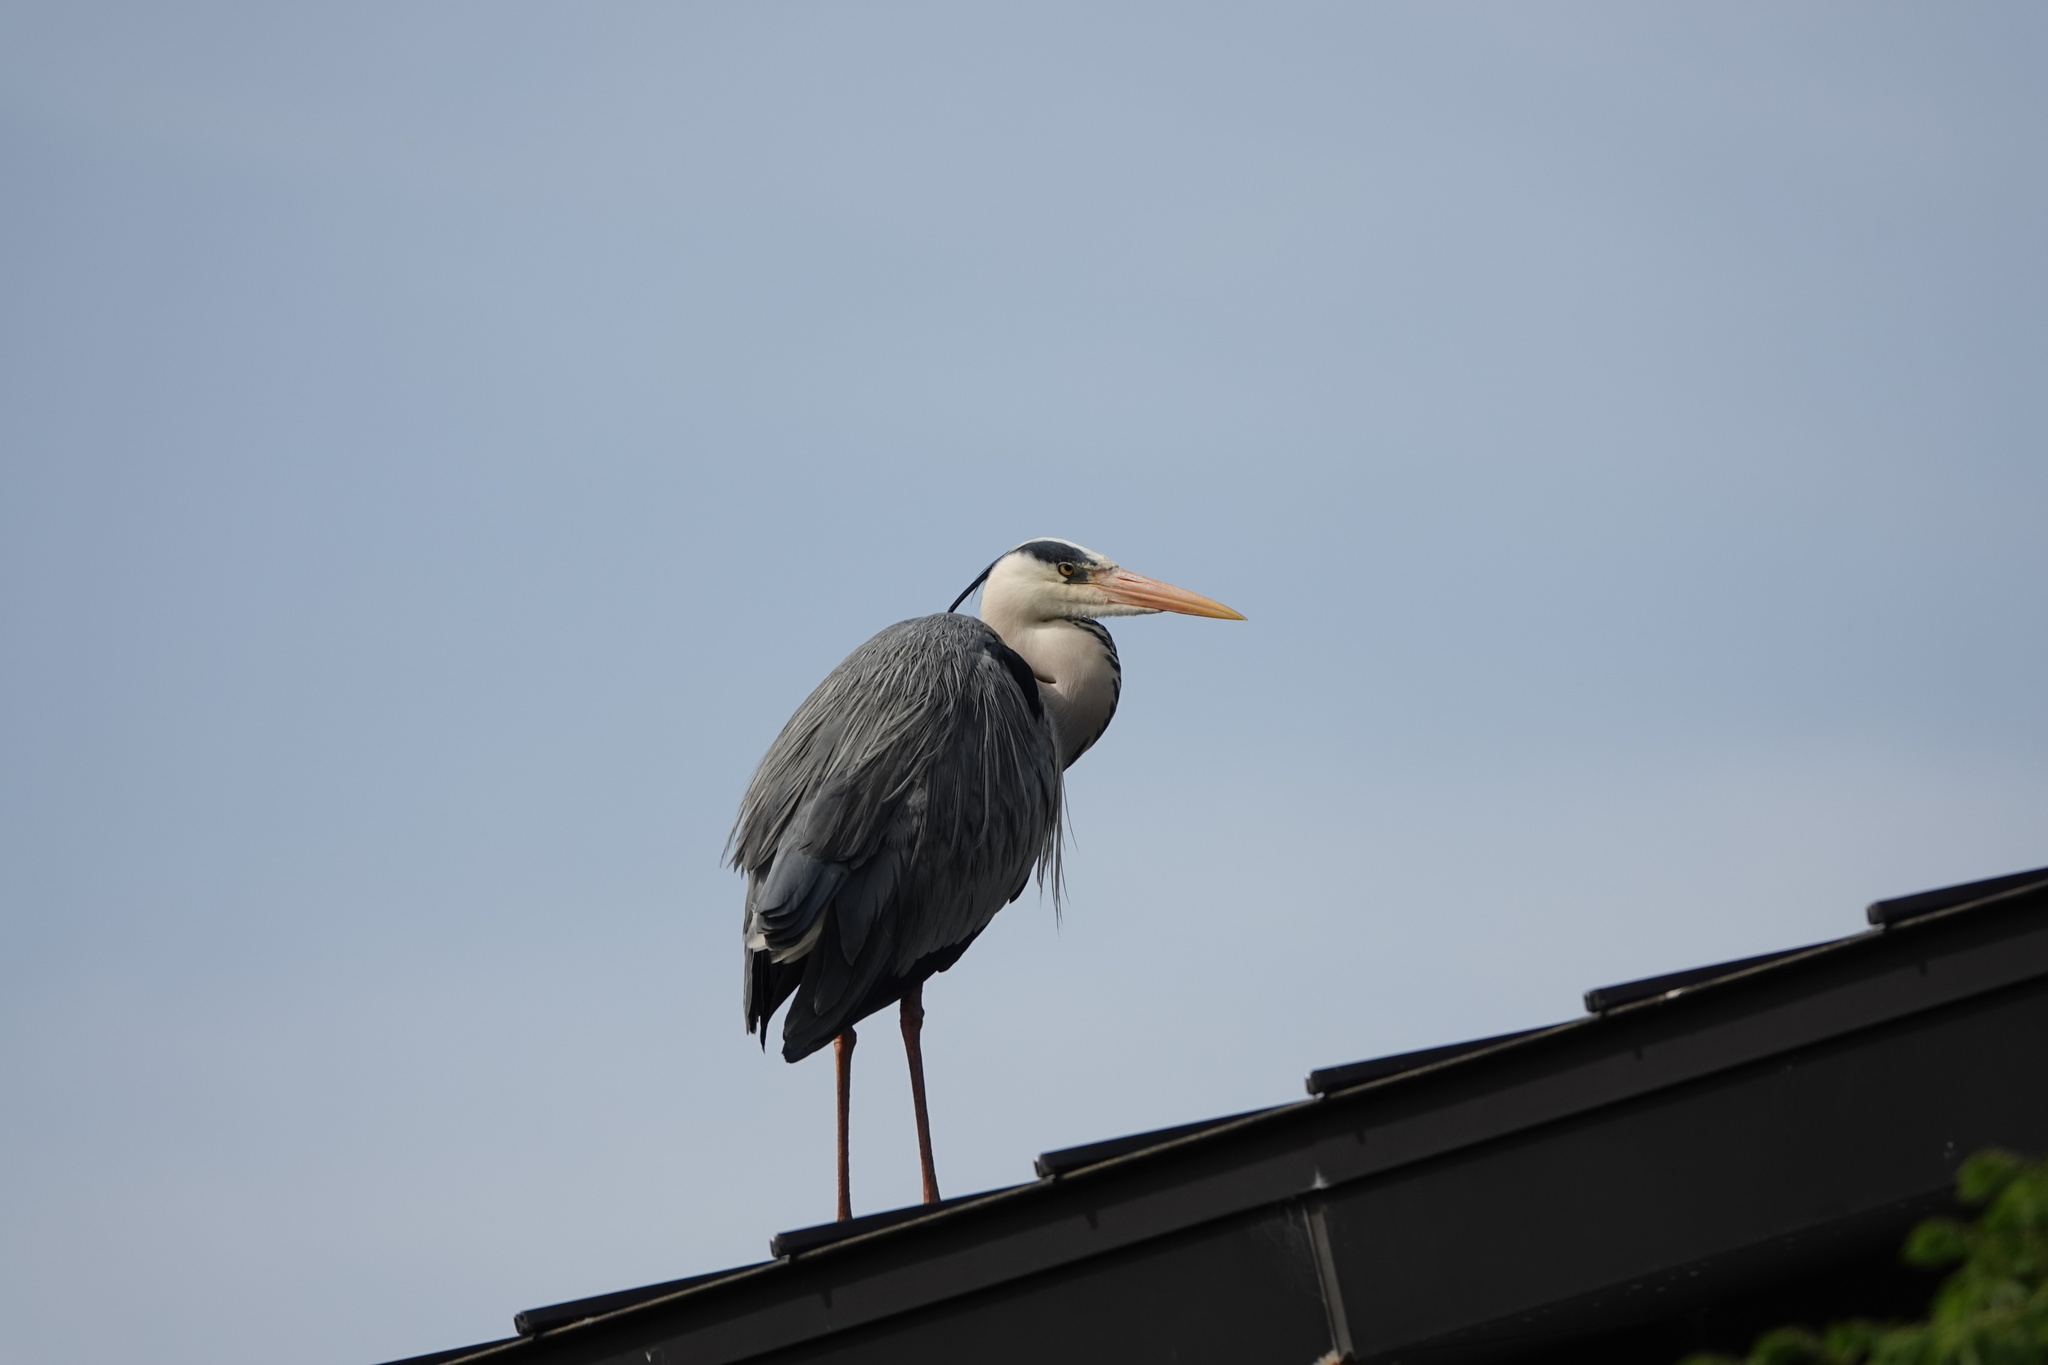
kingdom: Animalia
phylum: Chordata
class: Aves
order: Pelecaniformes
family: Ardeidae
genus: Ardea
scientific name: Ardea cinerea
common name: Grey heron
